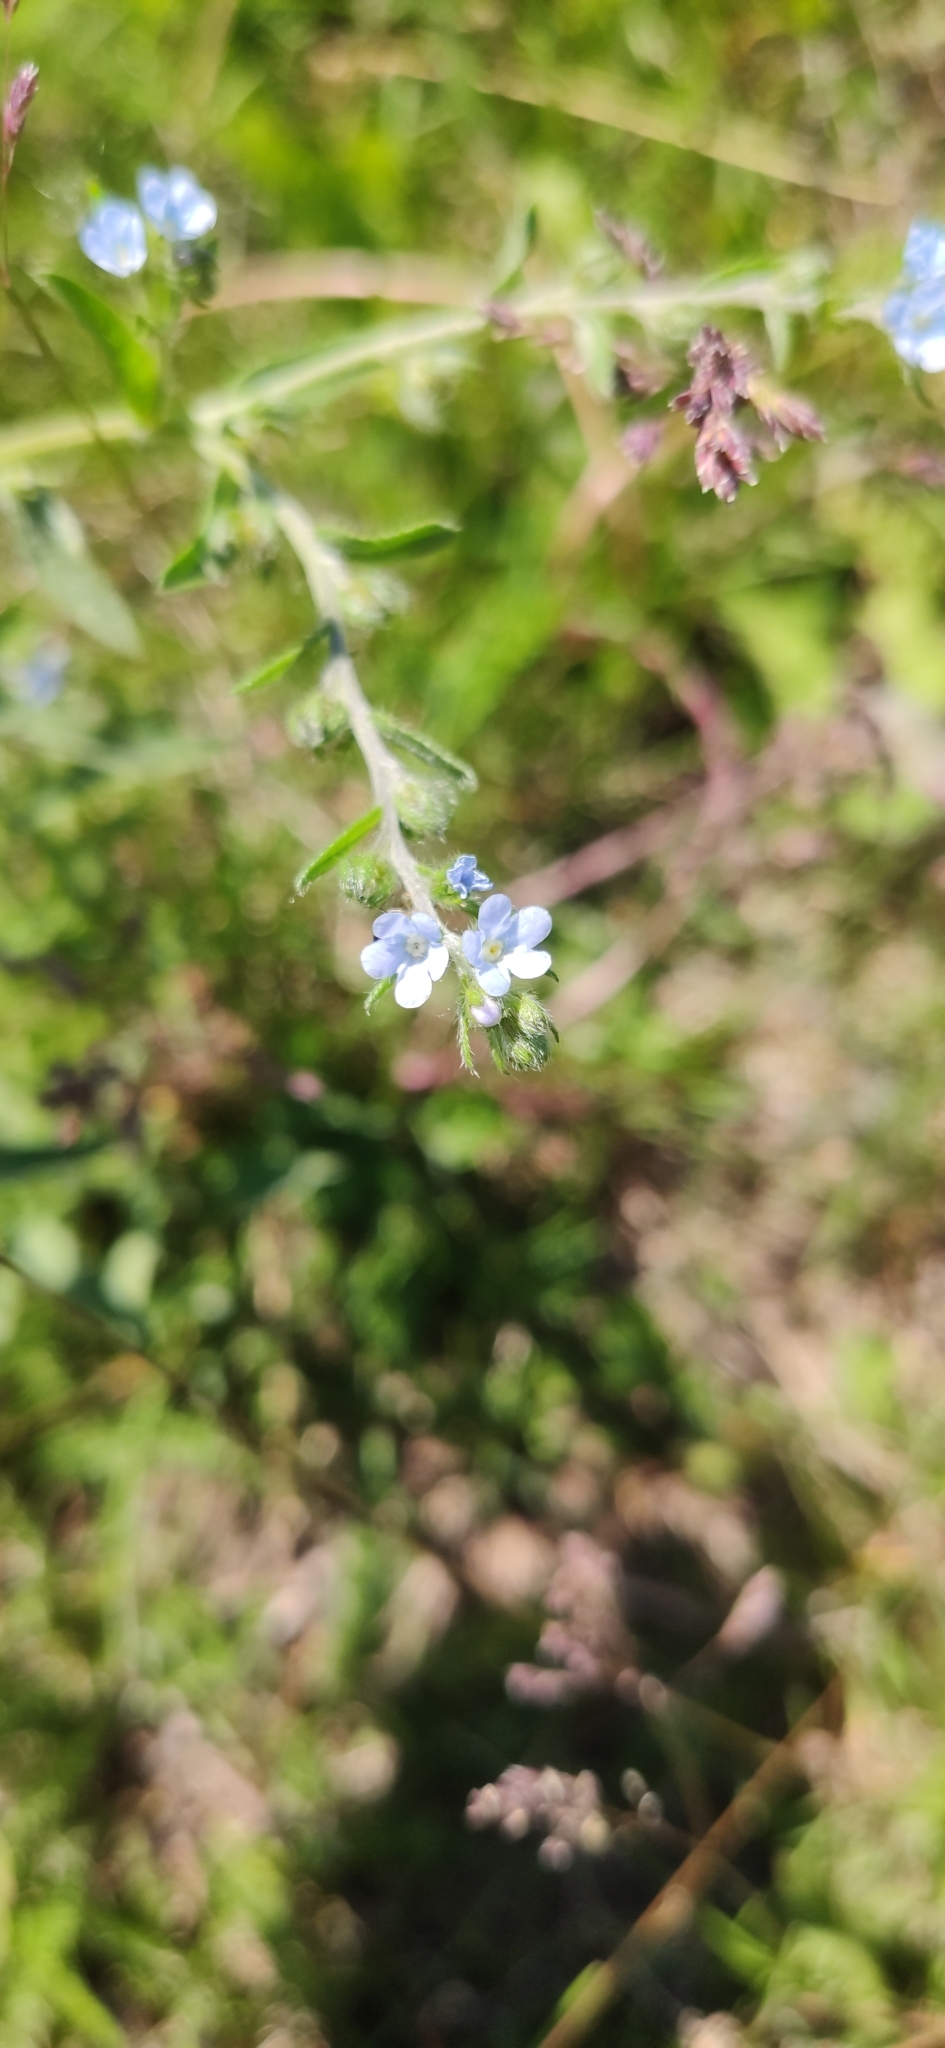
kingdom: Plantae
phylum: Tracheophyta
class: Magnoliopsida
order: Boraginales
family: Boraginaceae
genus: Lappula
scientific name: Lappula squarrosa
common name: European stickseed
